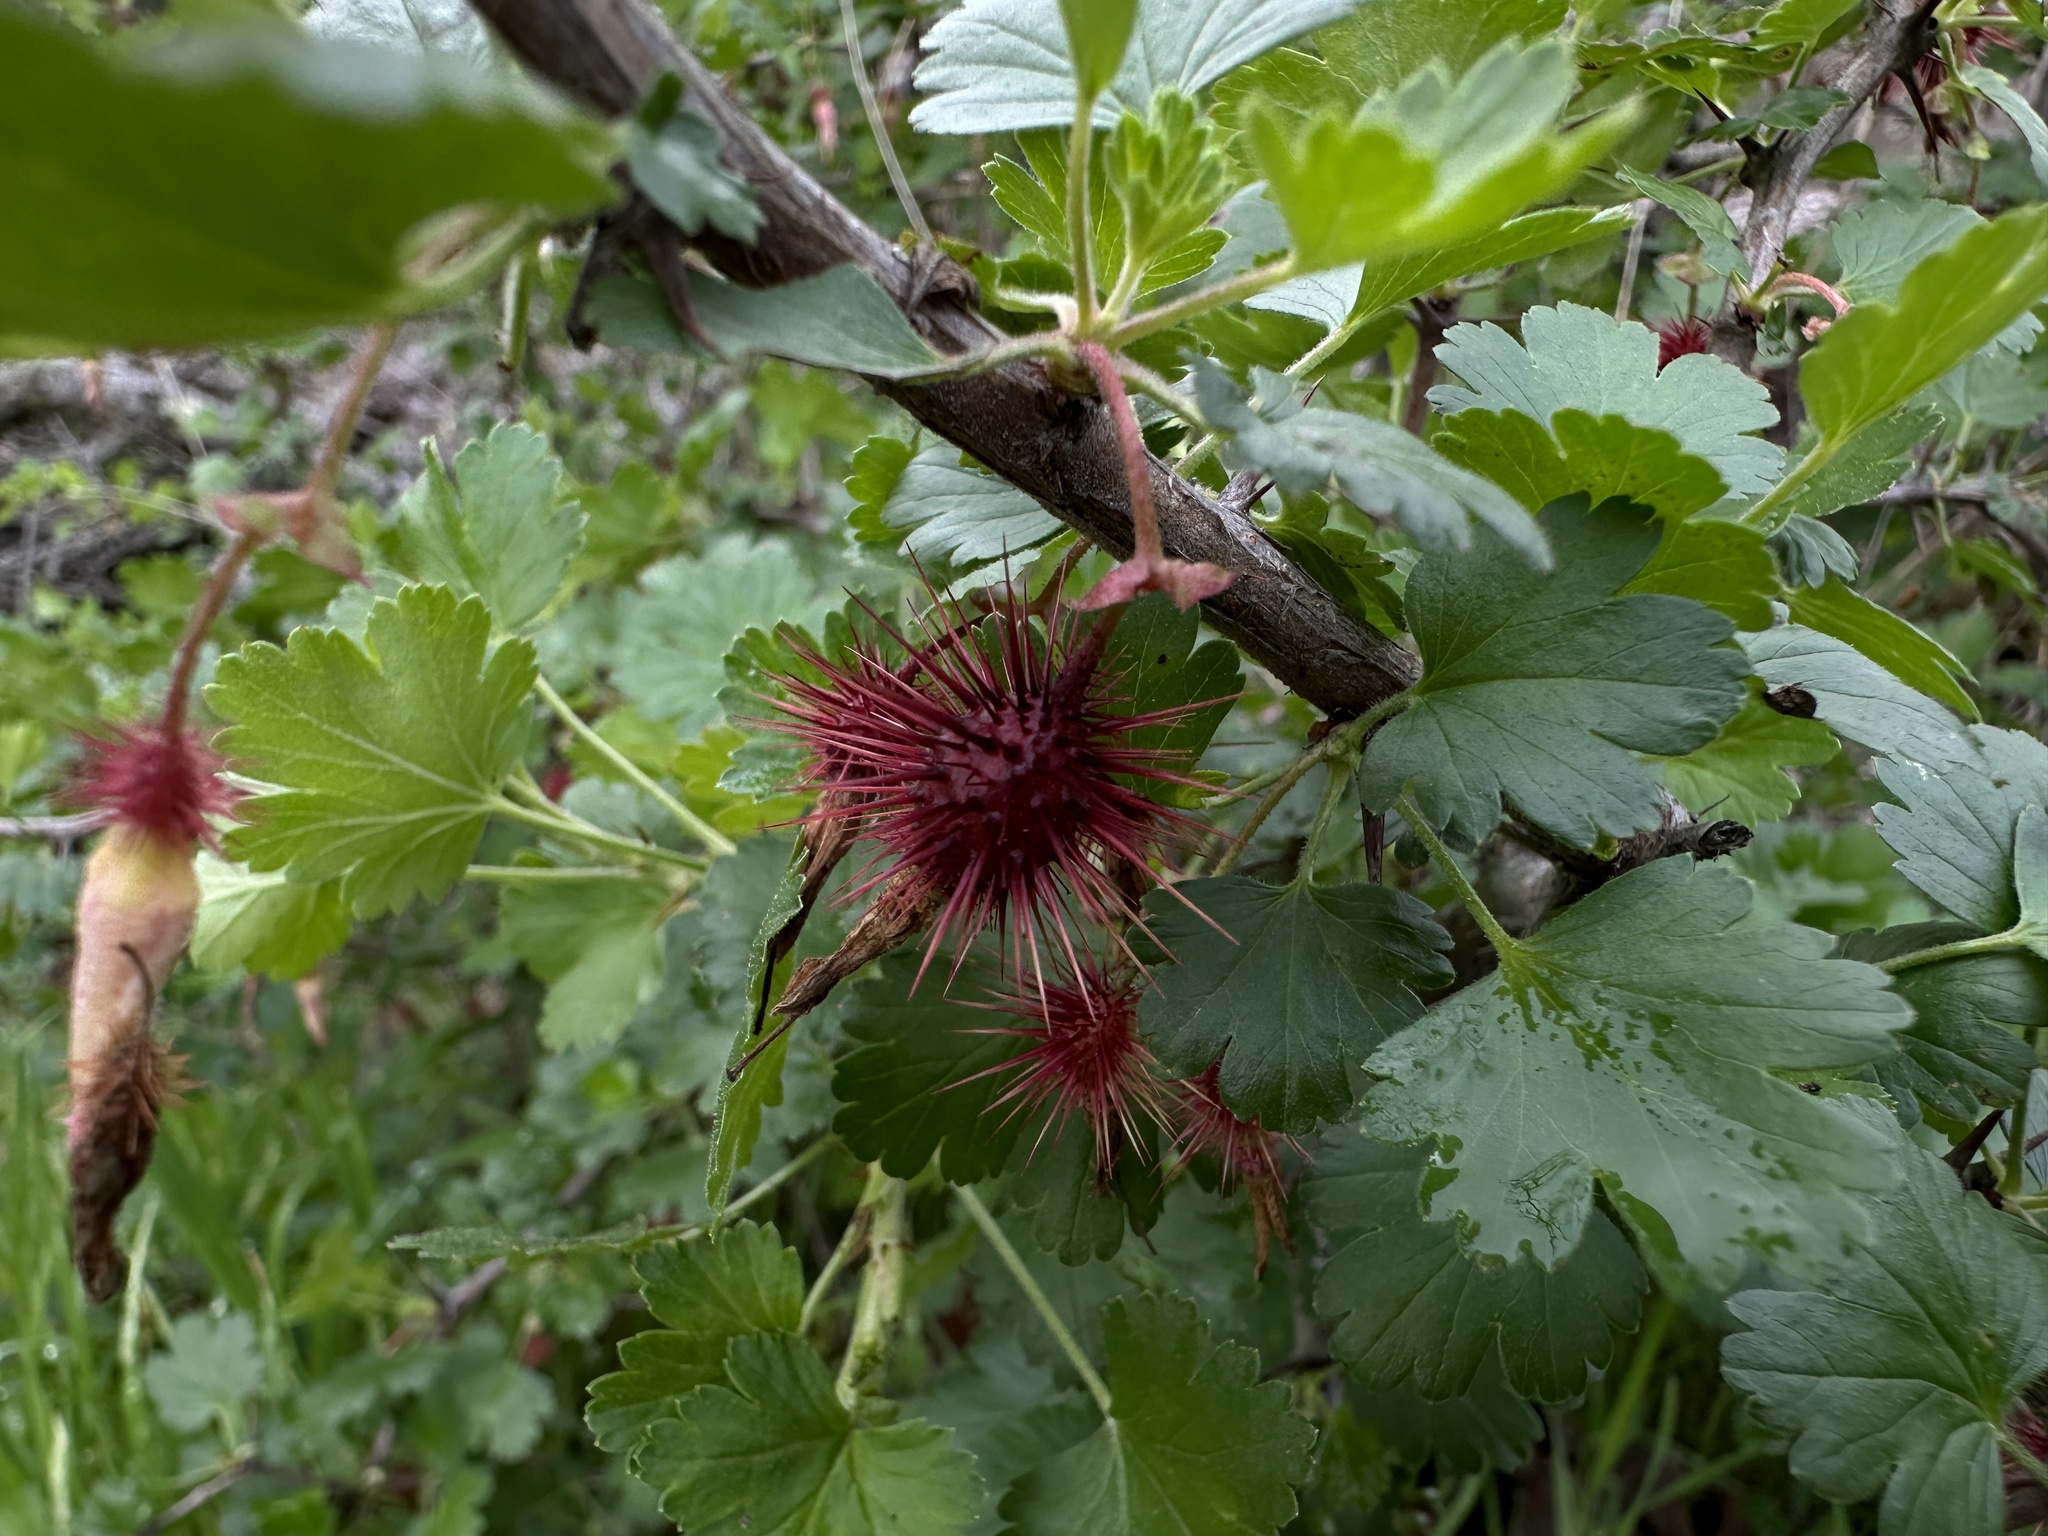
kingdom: Plantae
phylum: Tracheophyta
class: Magnoliopsida
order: Saxifragales
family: Grossulariaceae
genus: Ribes
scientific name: Ribes californicum
